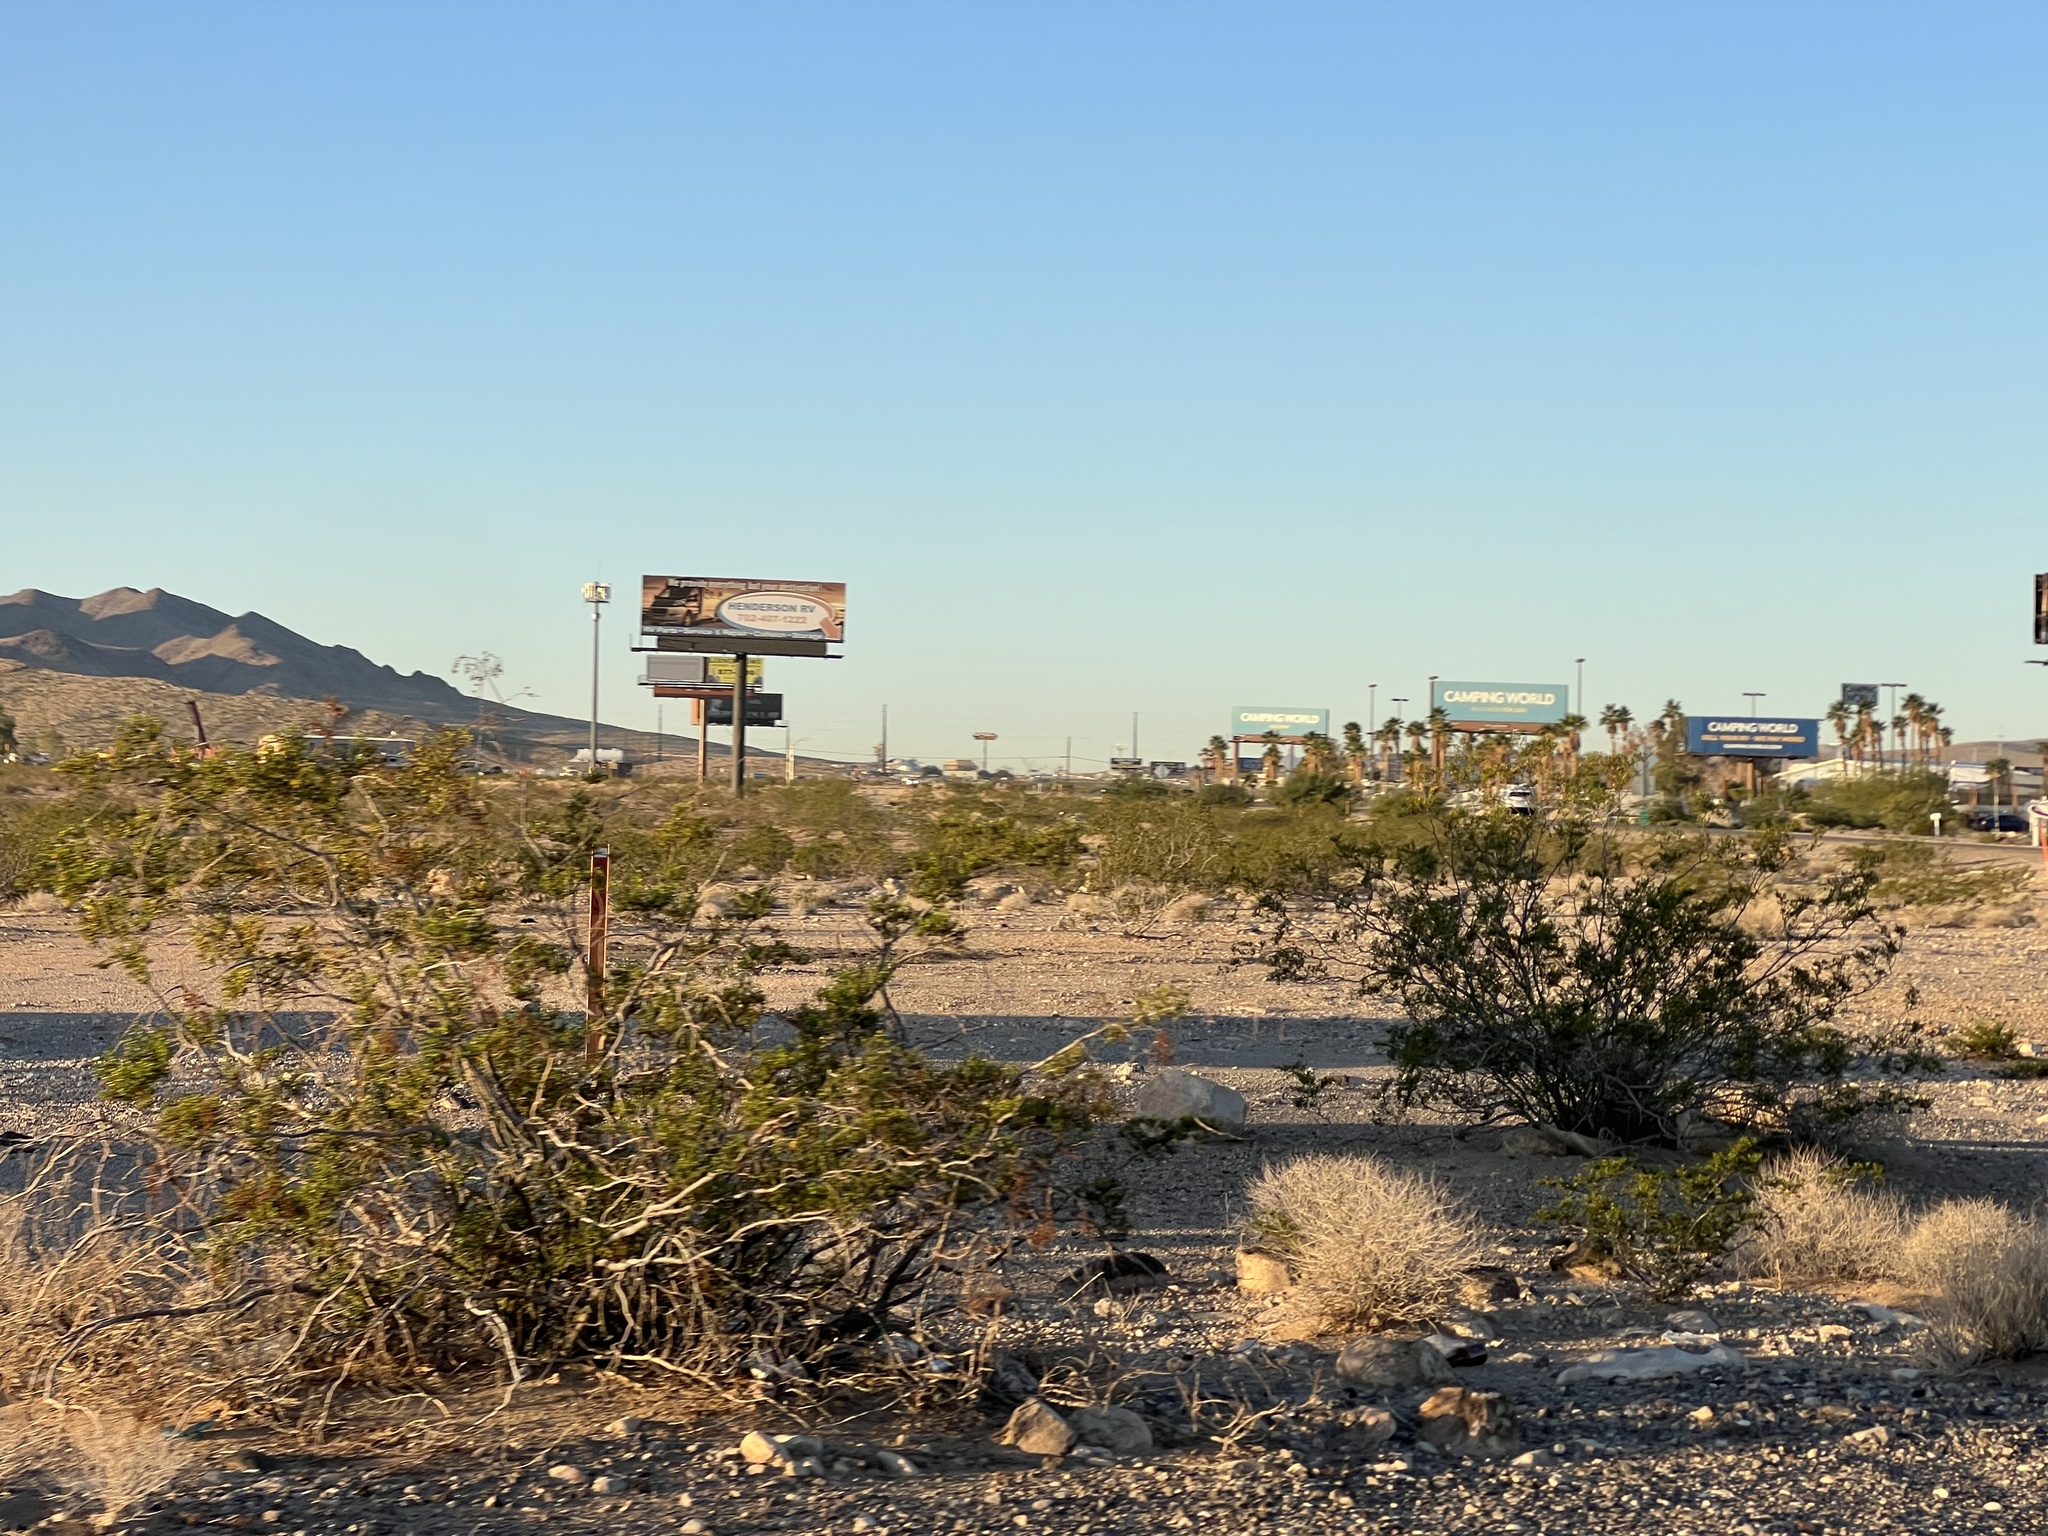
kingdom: Plantae
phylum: Tracheophyta
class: Magnoliopsida
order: Zygophyllales
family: Zygophyllaceae
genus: Larrea
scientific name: Larrea tridentata
